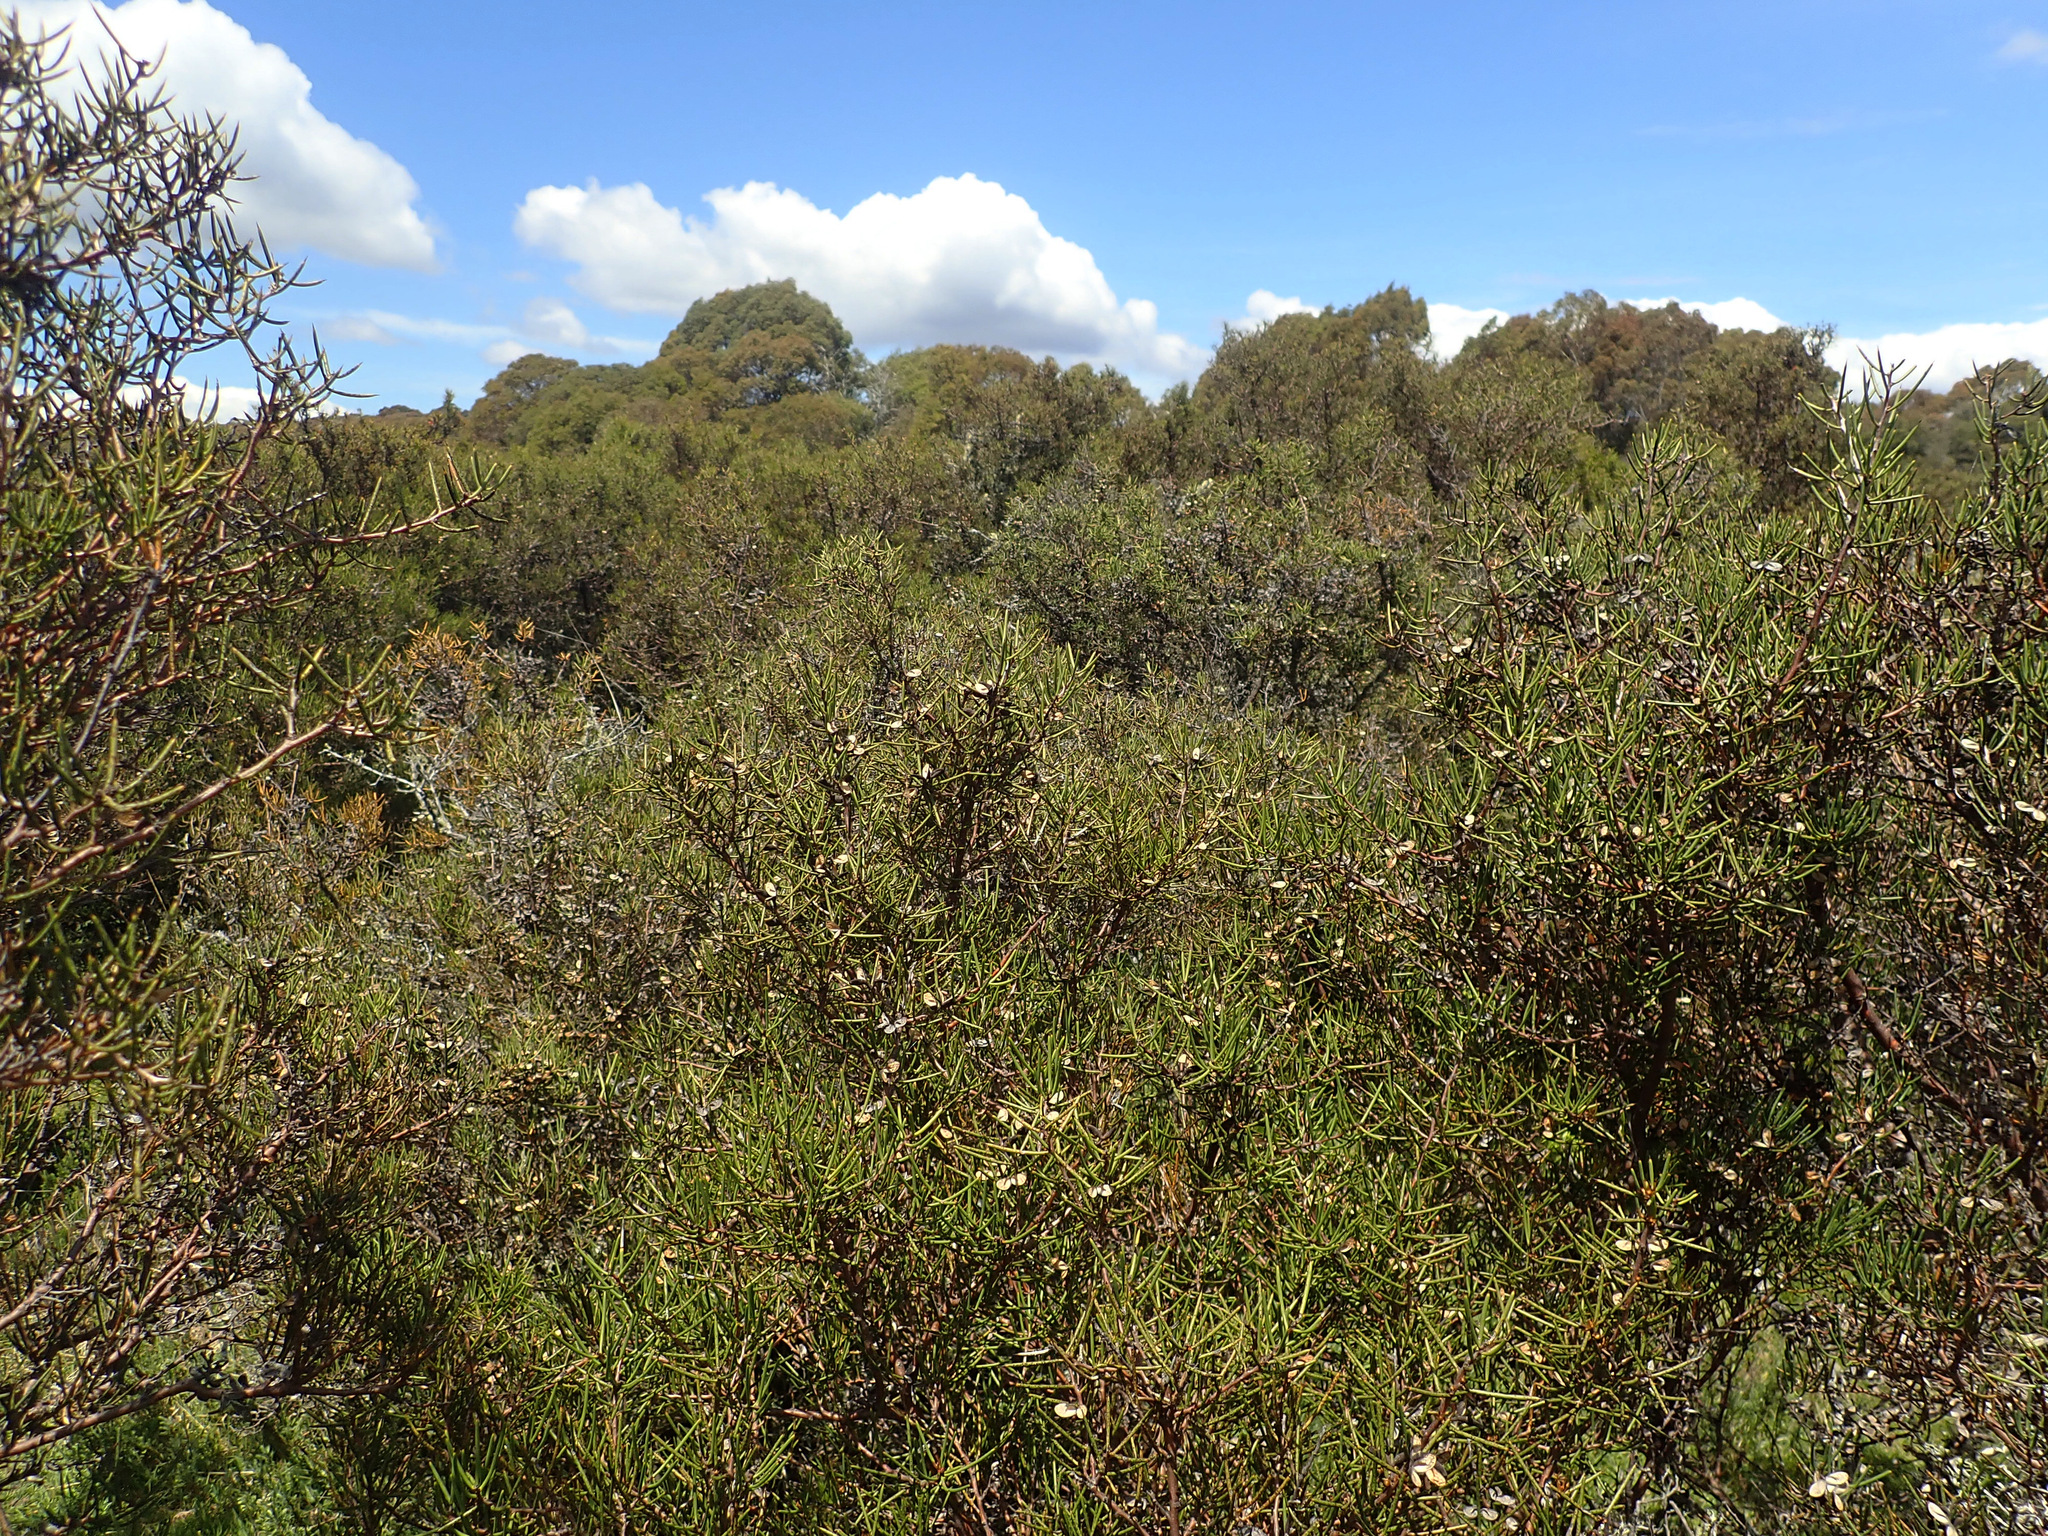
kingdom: Plantae
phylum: Tracheophyta
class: Magnoliopsida
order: Proteales
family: Proteaceae
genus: Hakea
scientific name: Hakea microcarpa
